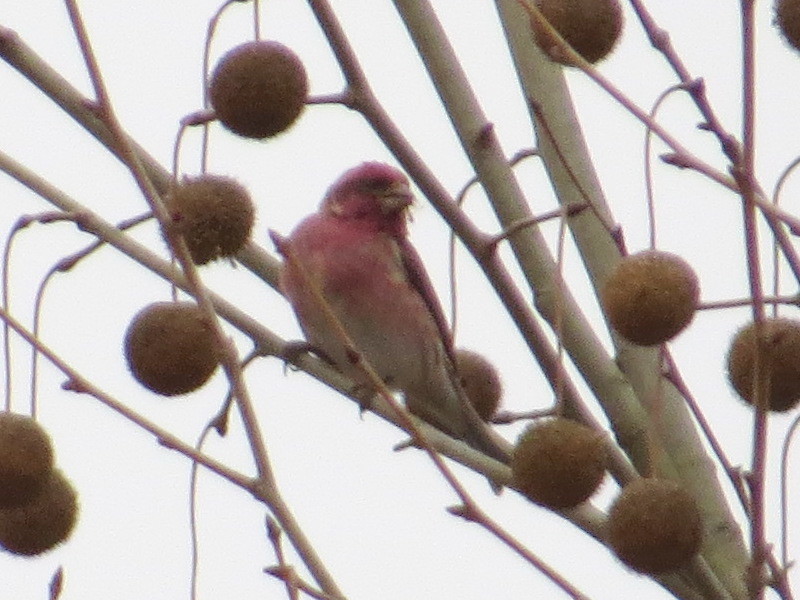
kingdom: Animalia
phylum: Chordata
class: Aves
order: Passeriformes
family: Fringillidae
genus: Haemorhous
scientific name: Haemorhous purpureus
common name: Purple finch
